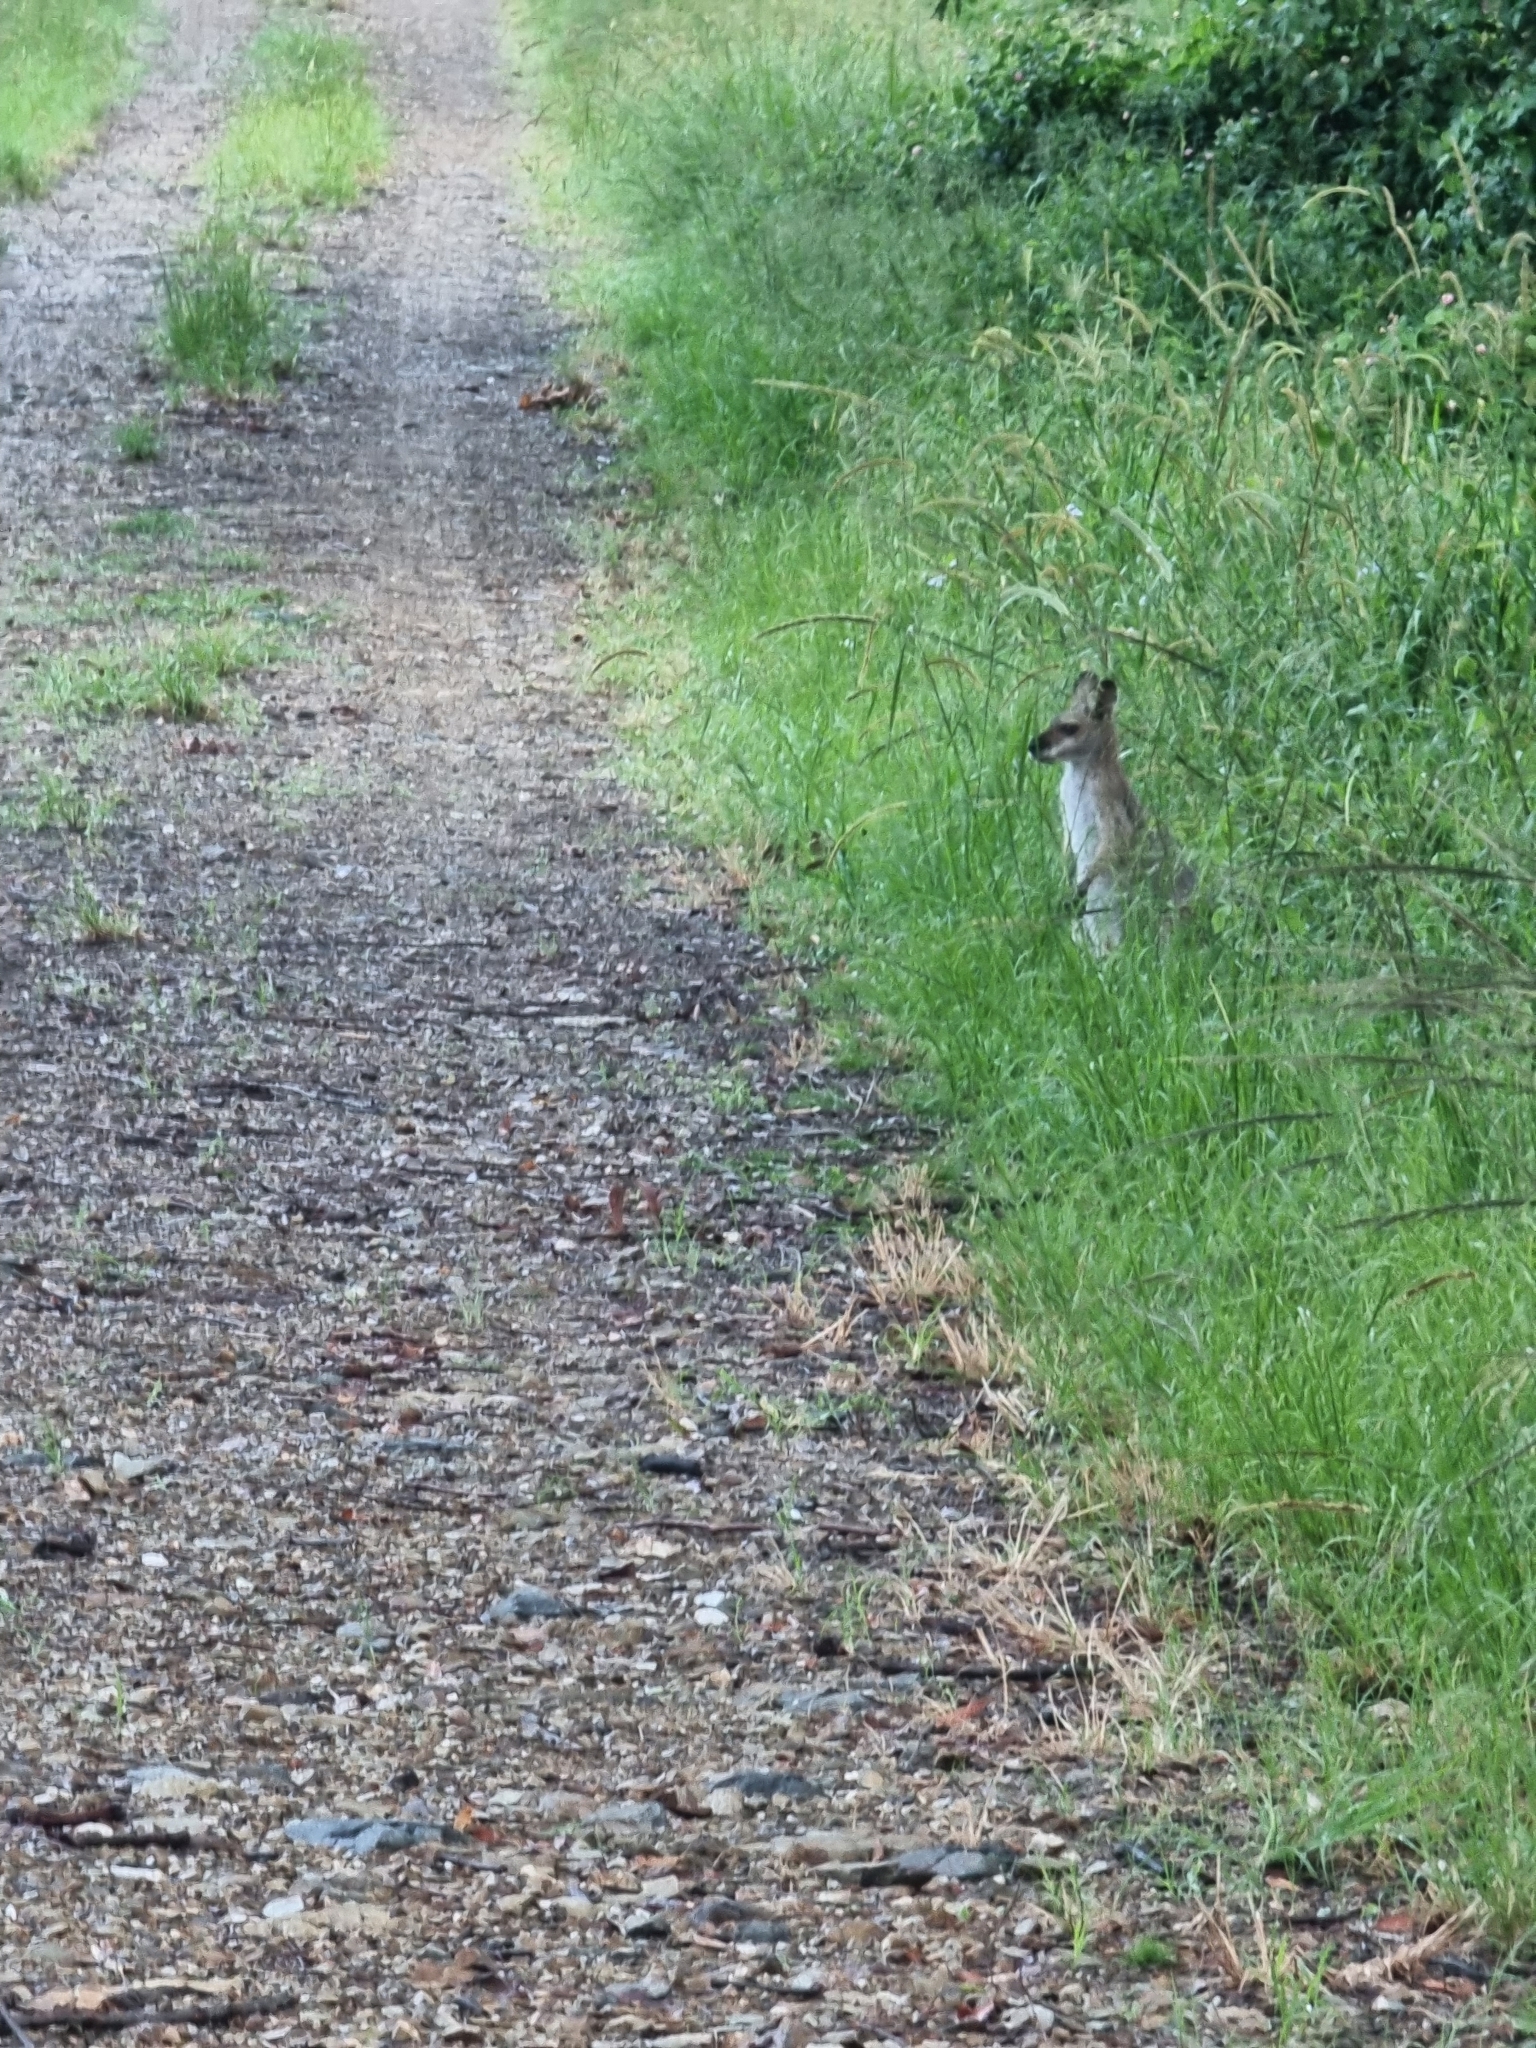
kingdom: Animalia
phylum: Chordata
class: Mammalia
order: Diprotodontia
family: Macropodidae
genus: Notamacropus
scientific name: Notamacropus rufogriseus
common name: Red-necked wallaby
